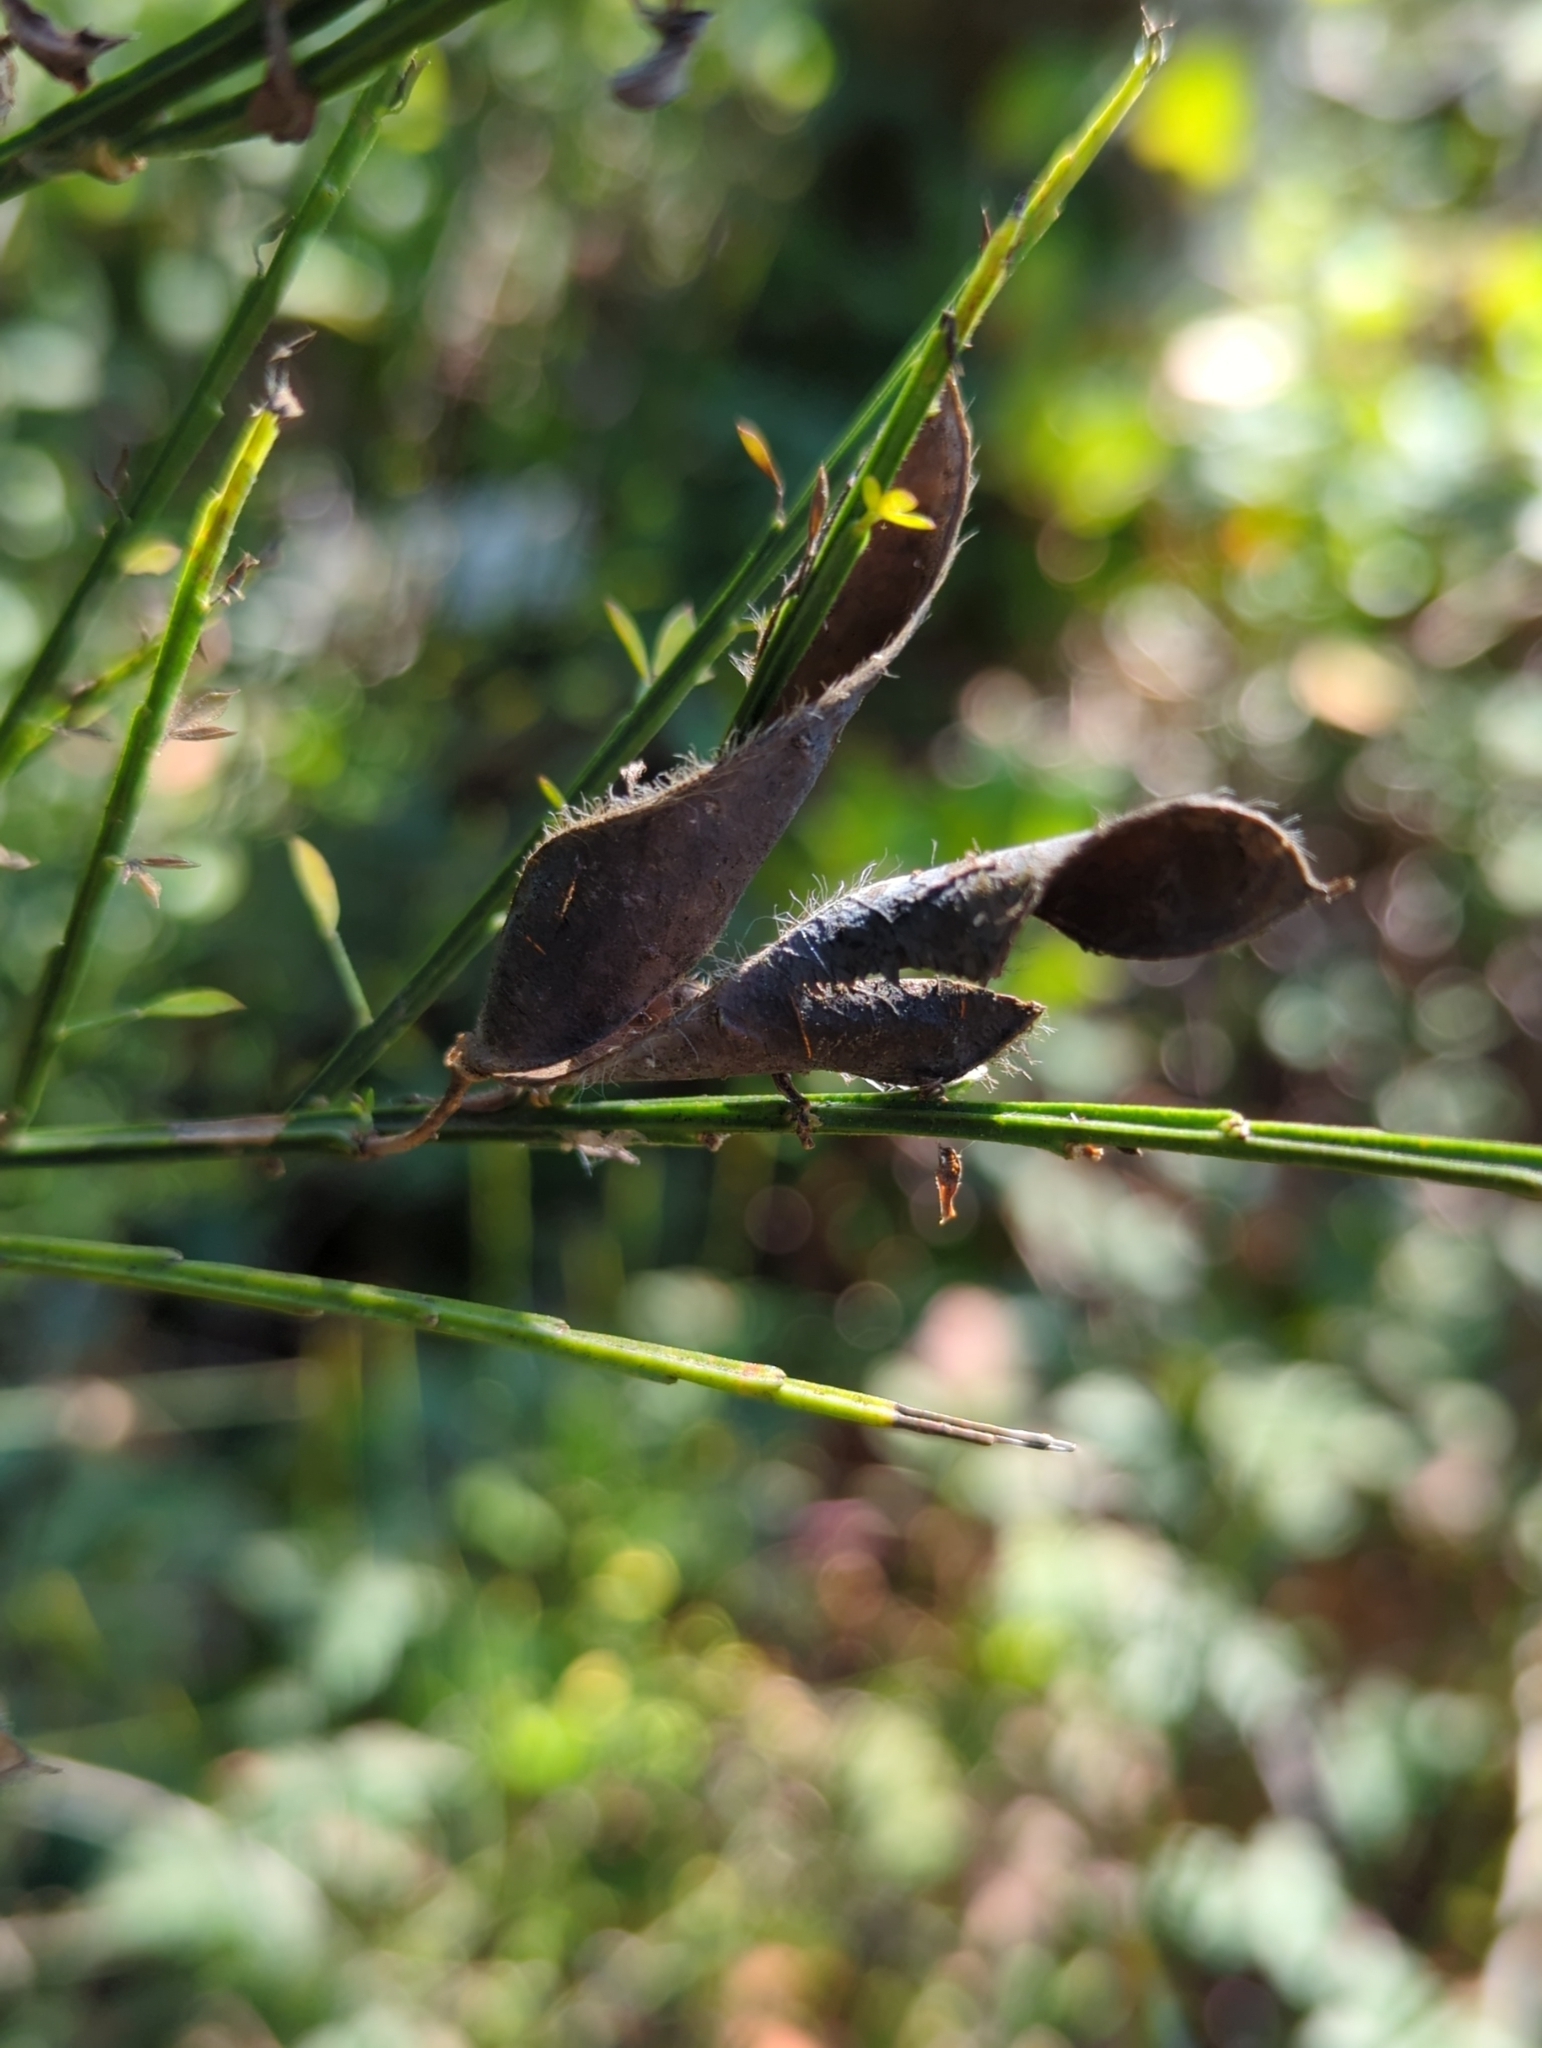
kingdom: Plantae
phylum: Tracheophyta
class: Magnoliopsida
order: Fabales
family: Fabaceae
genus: Cytisus
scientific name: Cytisus scoparius
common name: Scotch broom
